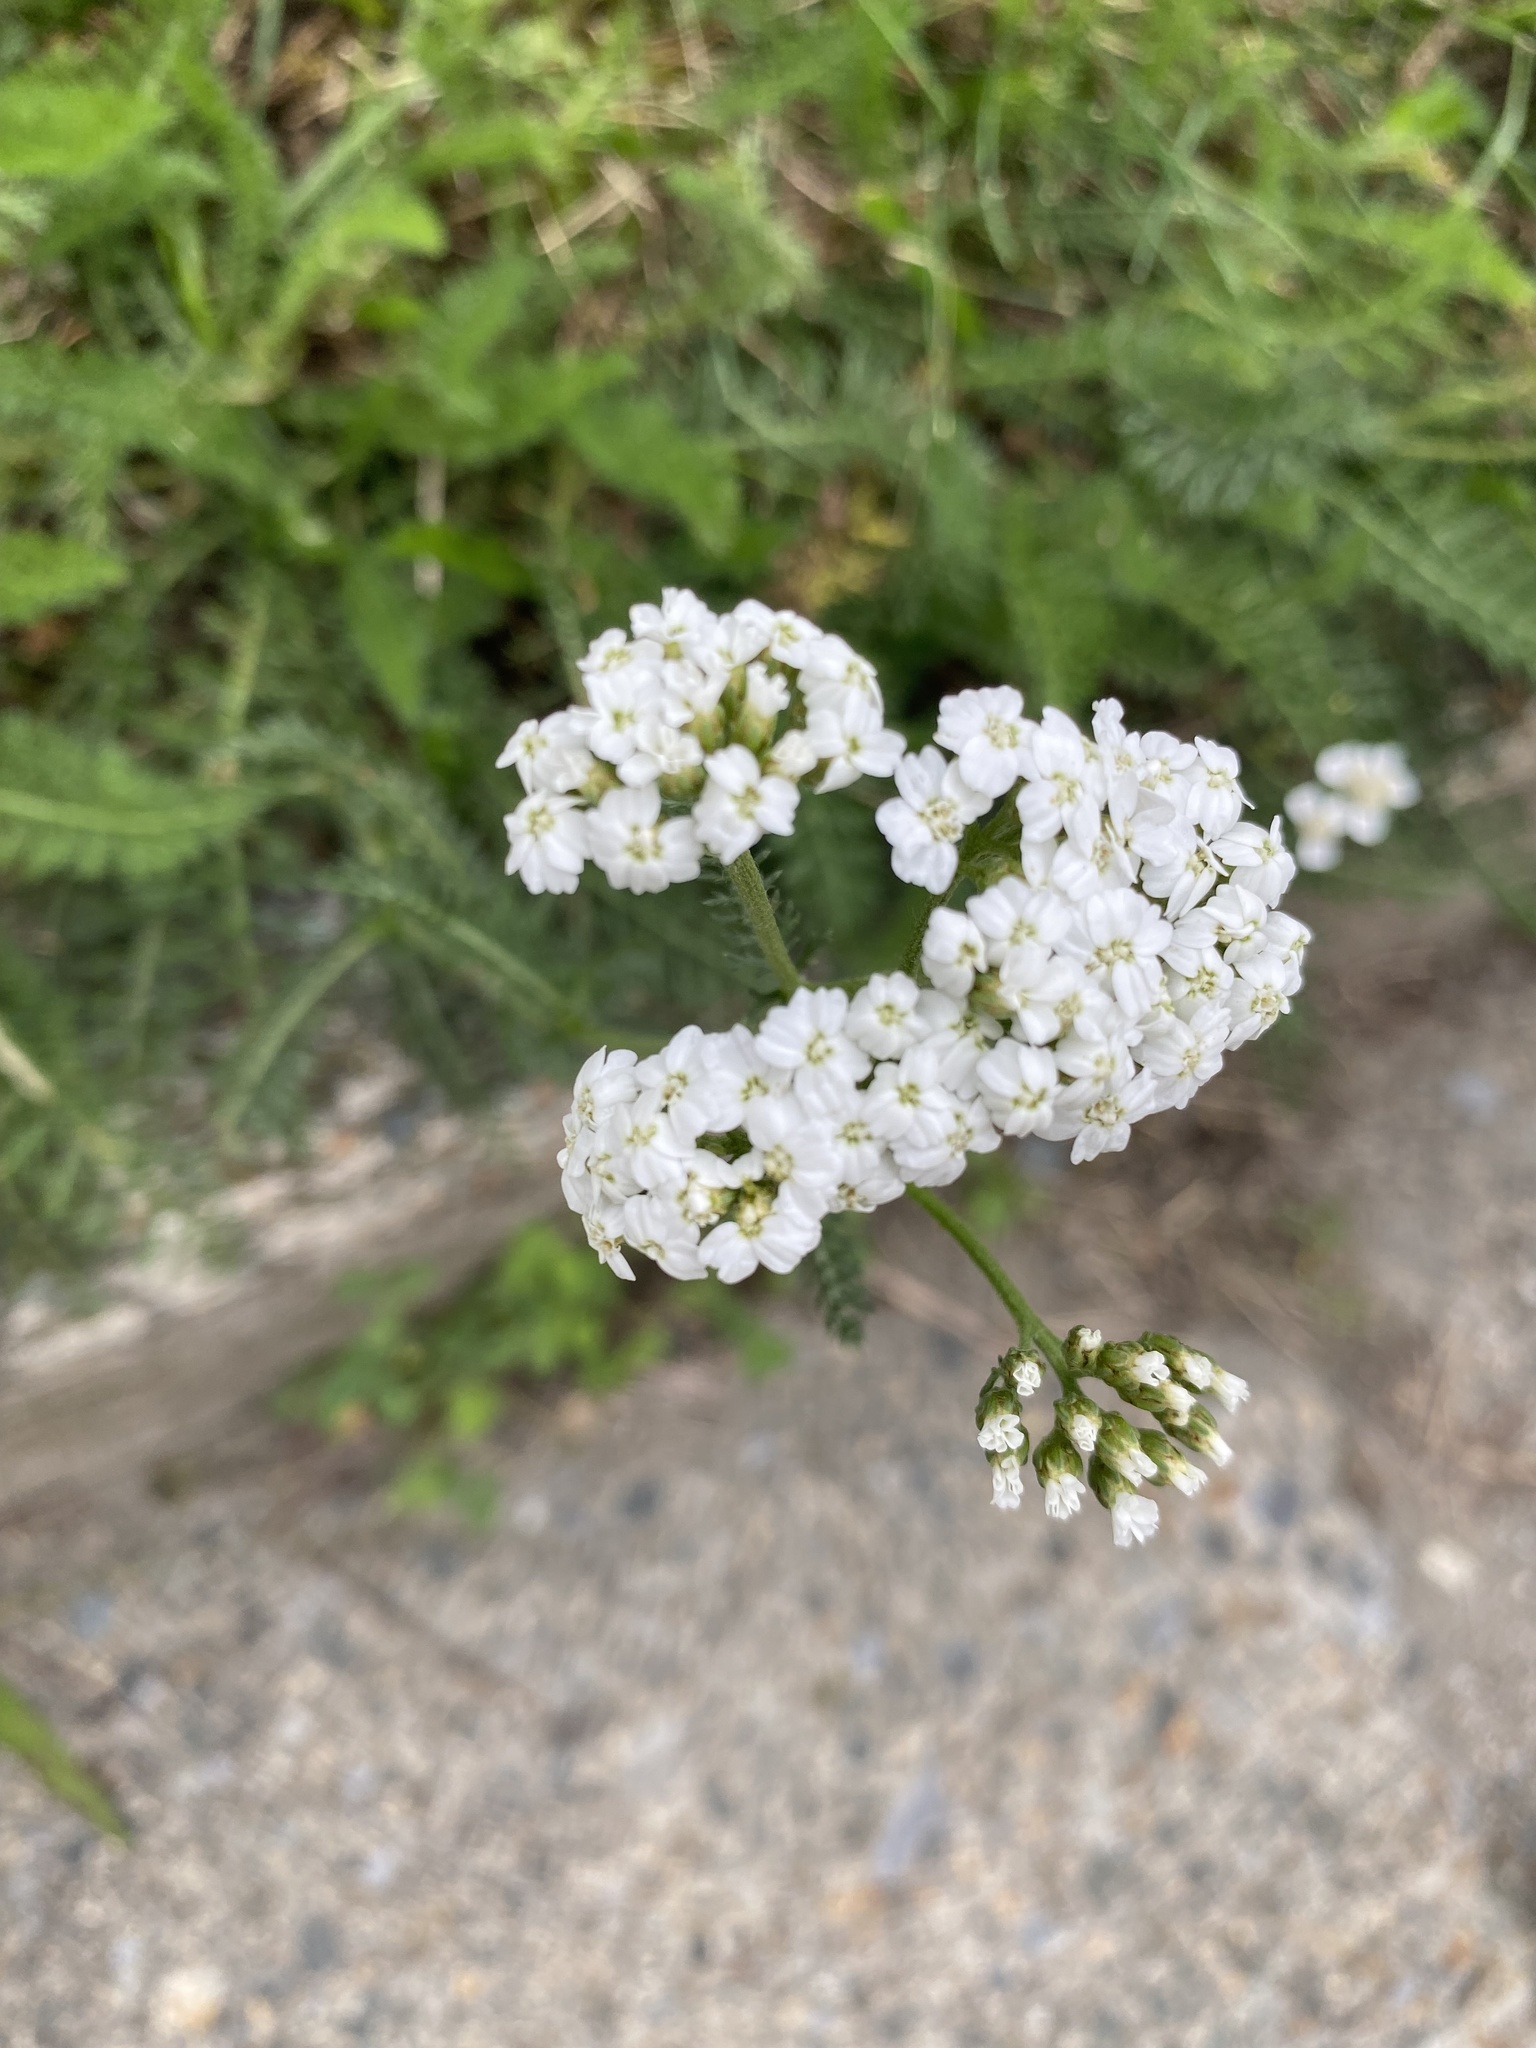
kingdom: Plantae
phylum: Tracheophyta
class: Magnoliopsida
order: Asterales
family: Asteraceae
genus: Achillea
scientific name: Achillea millefolium
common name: Yarrow
